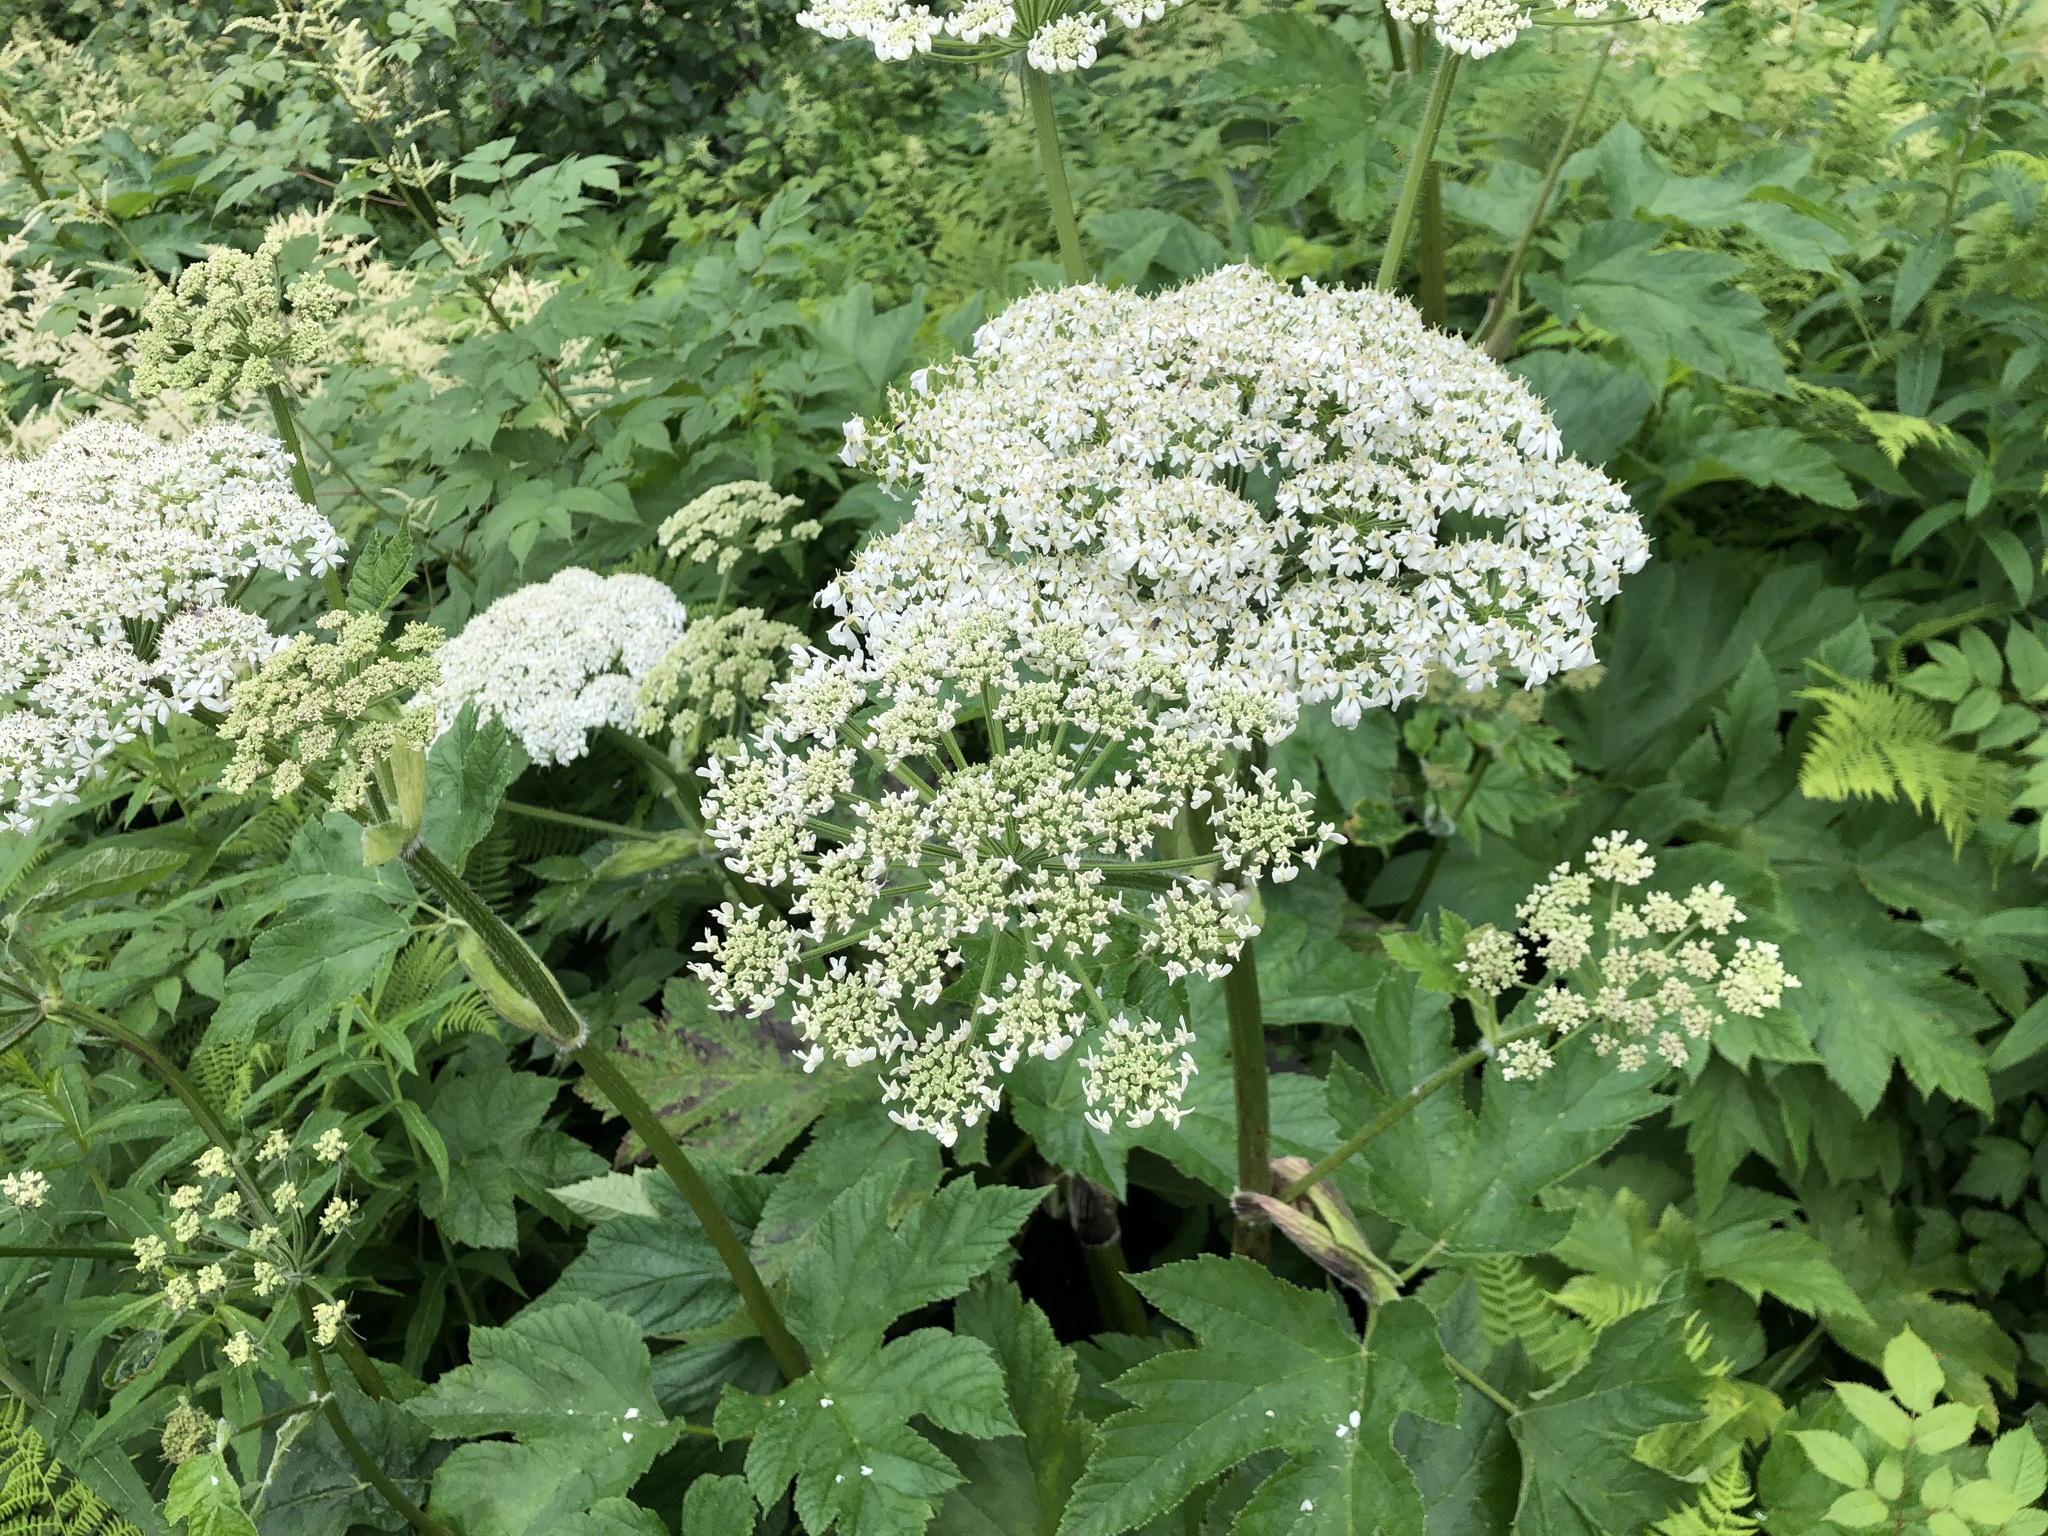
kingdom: Plantae
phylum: Tracheophyta
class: Magnoliopsida
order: Apiales
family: Apiaceae
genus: Heracleum
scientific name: Heracleum maximum
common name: American cow parsnip
